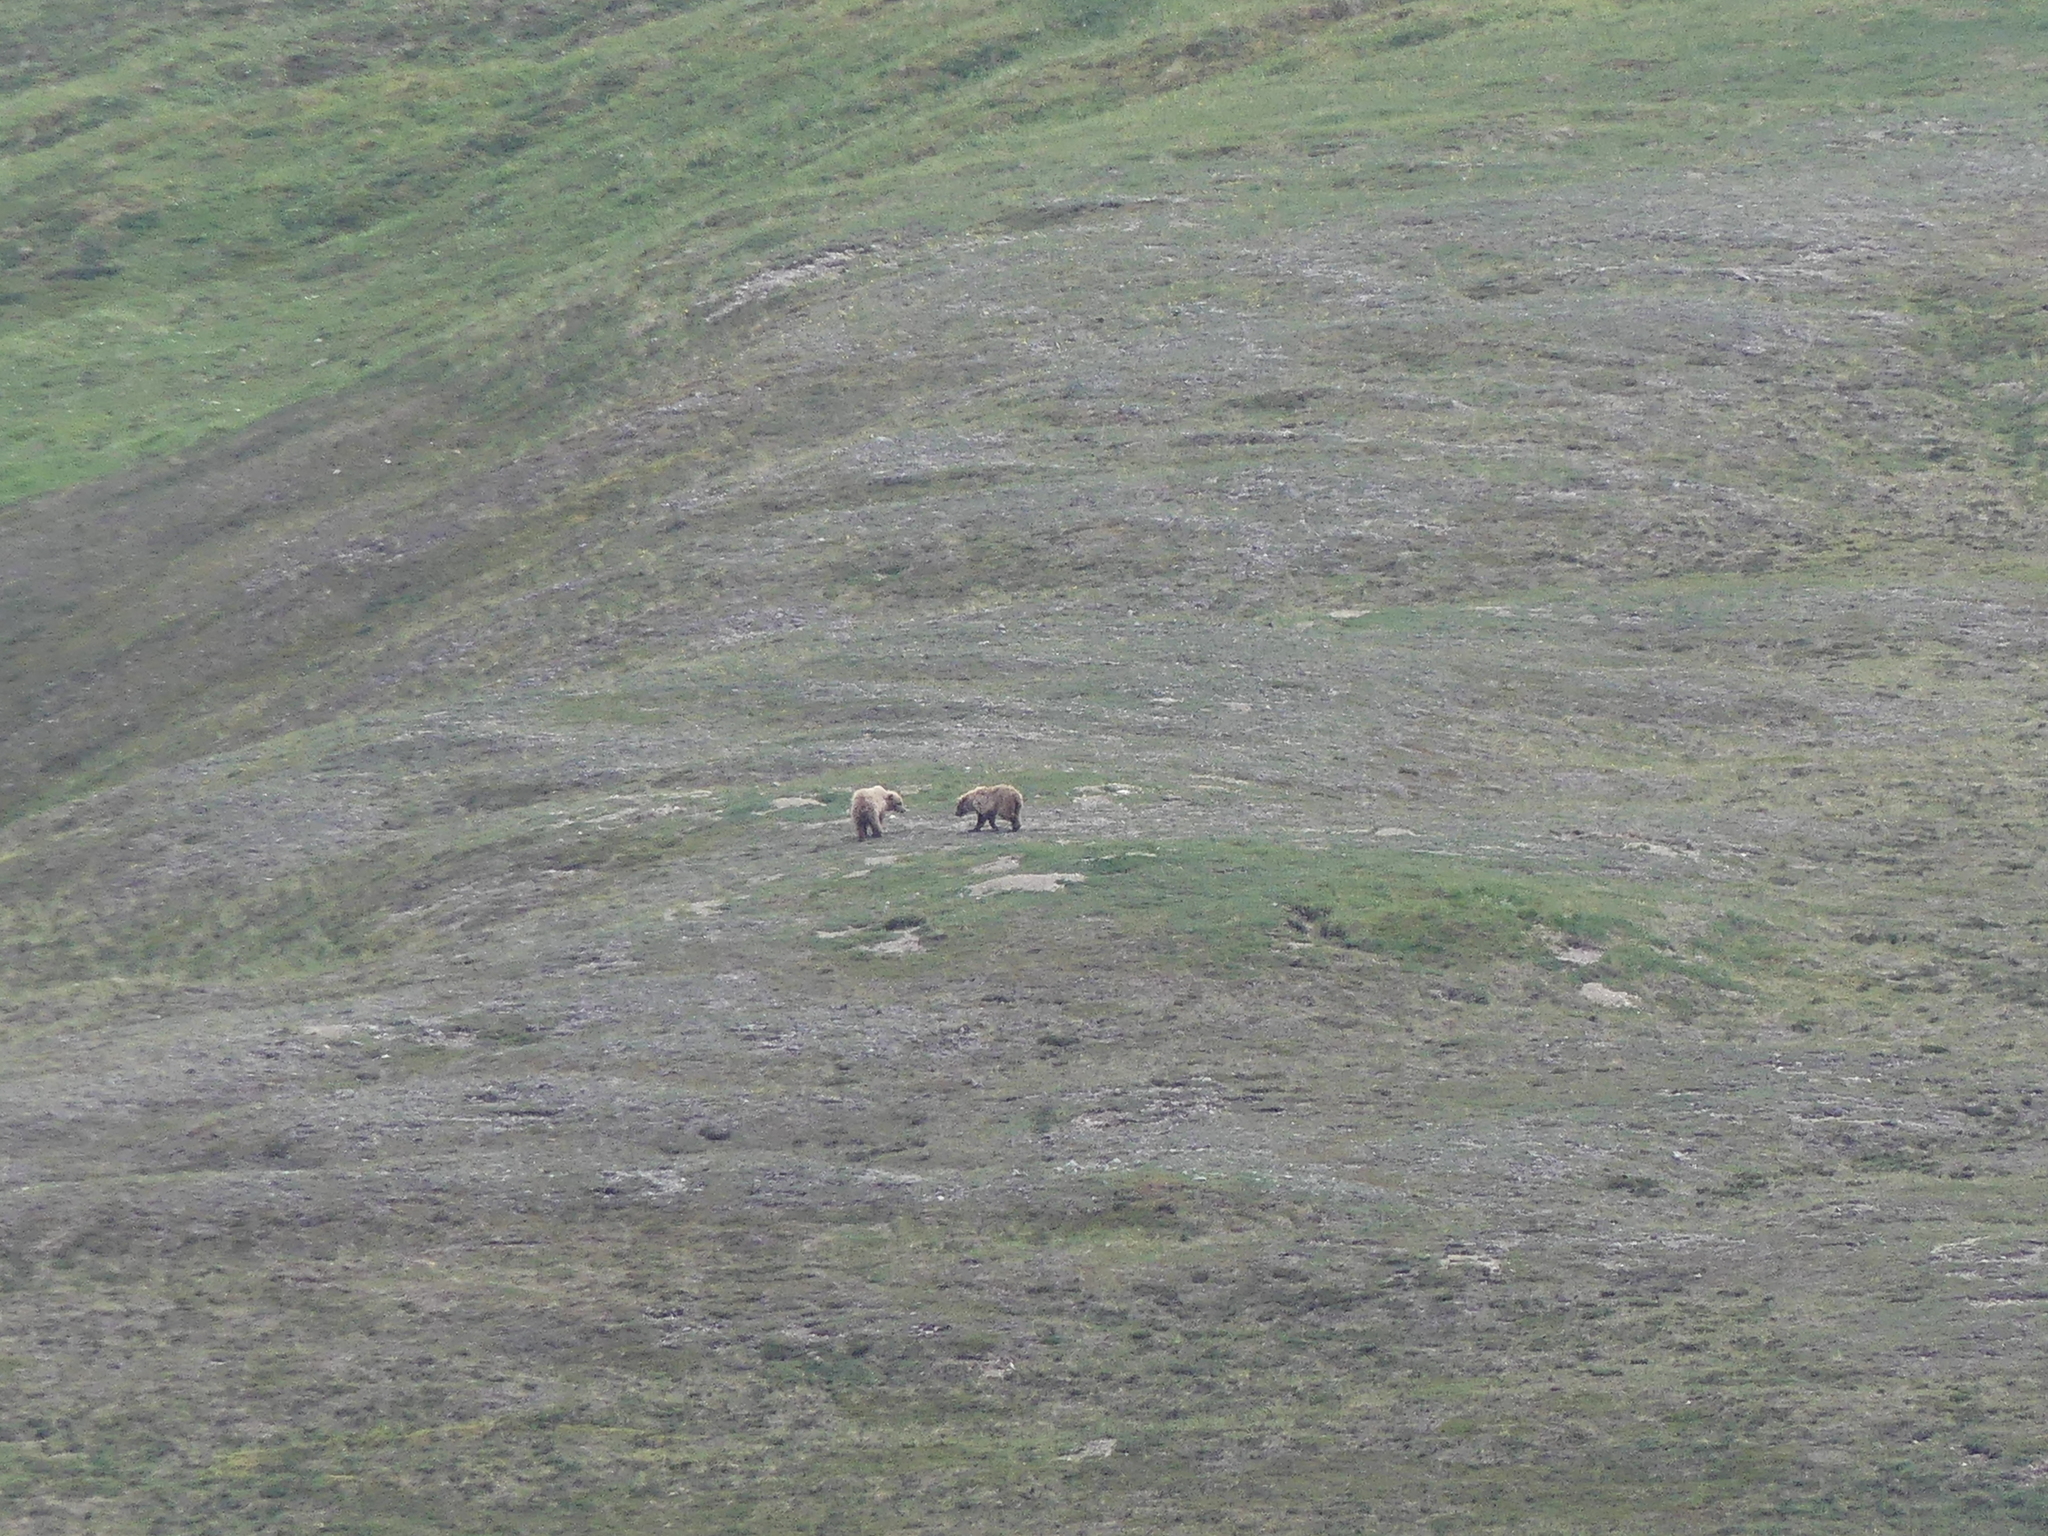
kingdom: Animalia
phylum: Chordata
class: Mammalia
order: Carnivora
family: Ursidae
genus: Ursus
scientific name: Ursus arctos
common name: Brown bear
